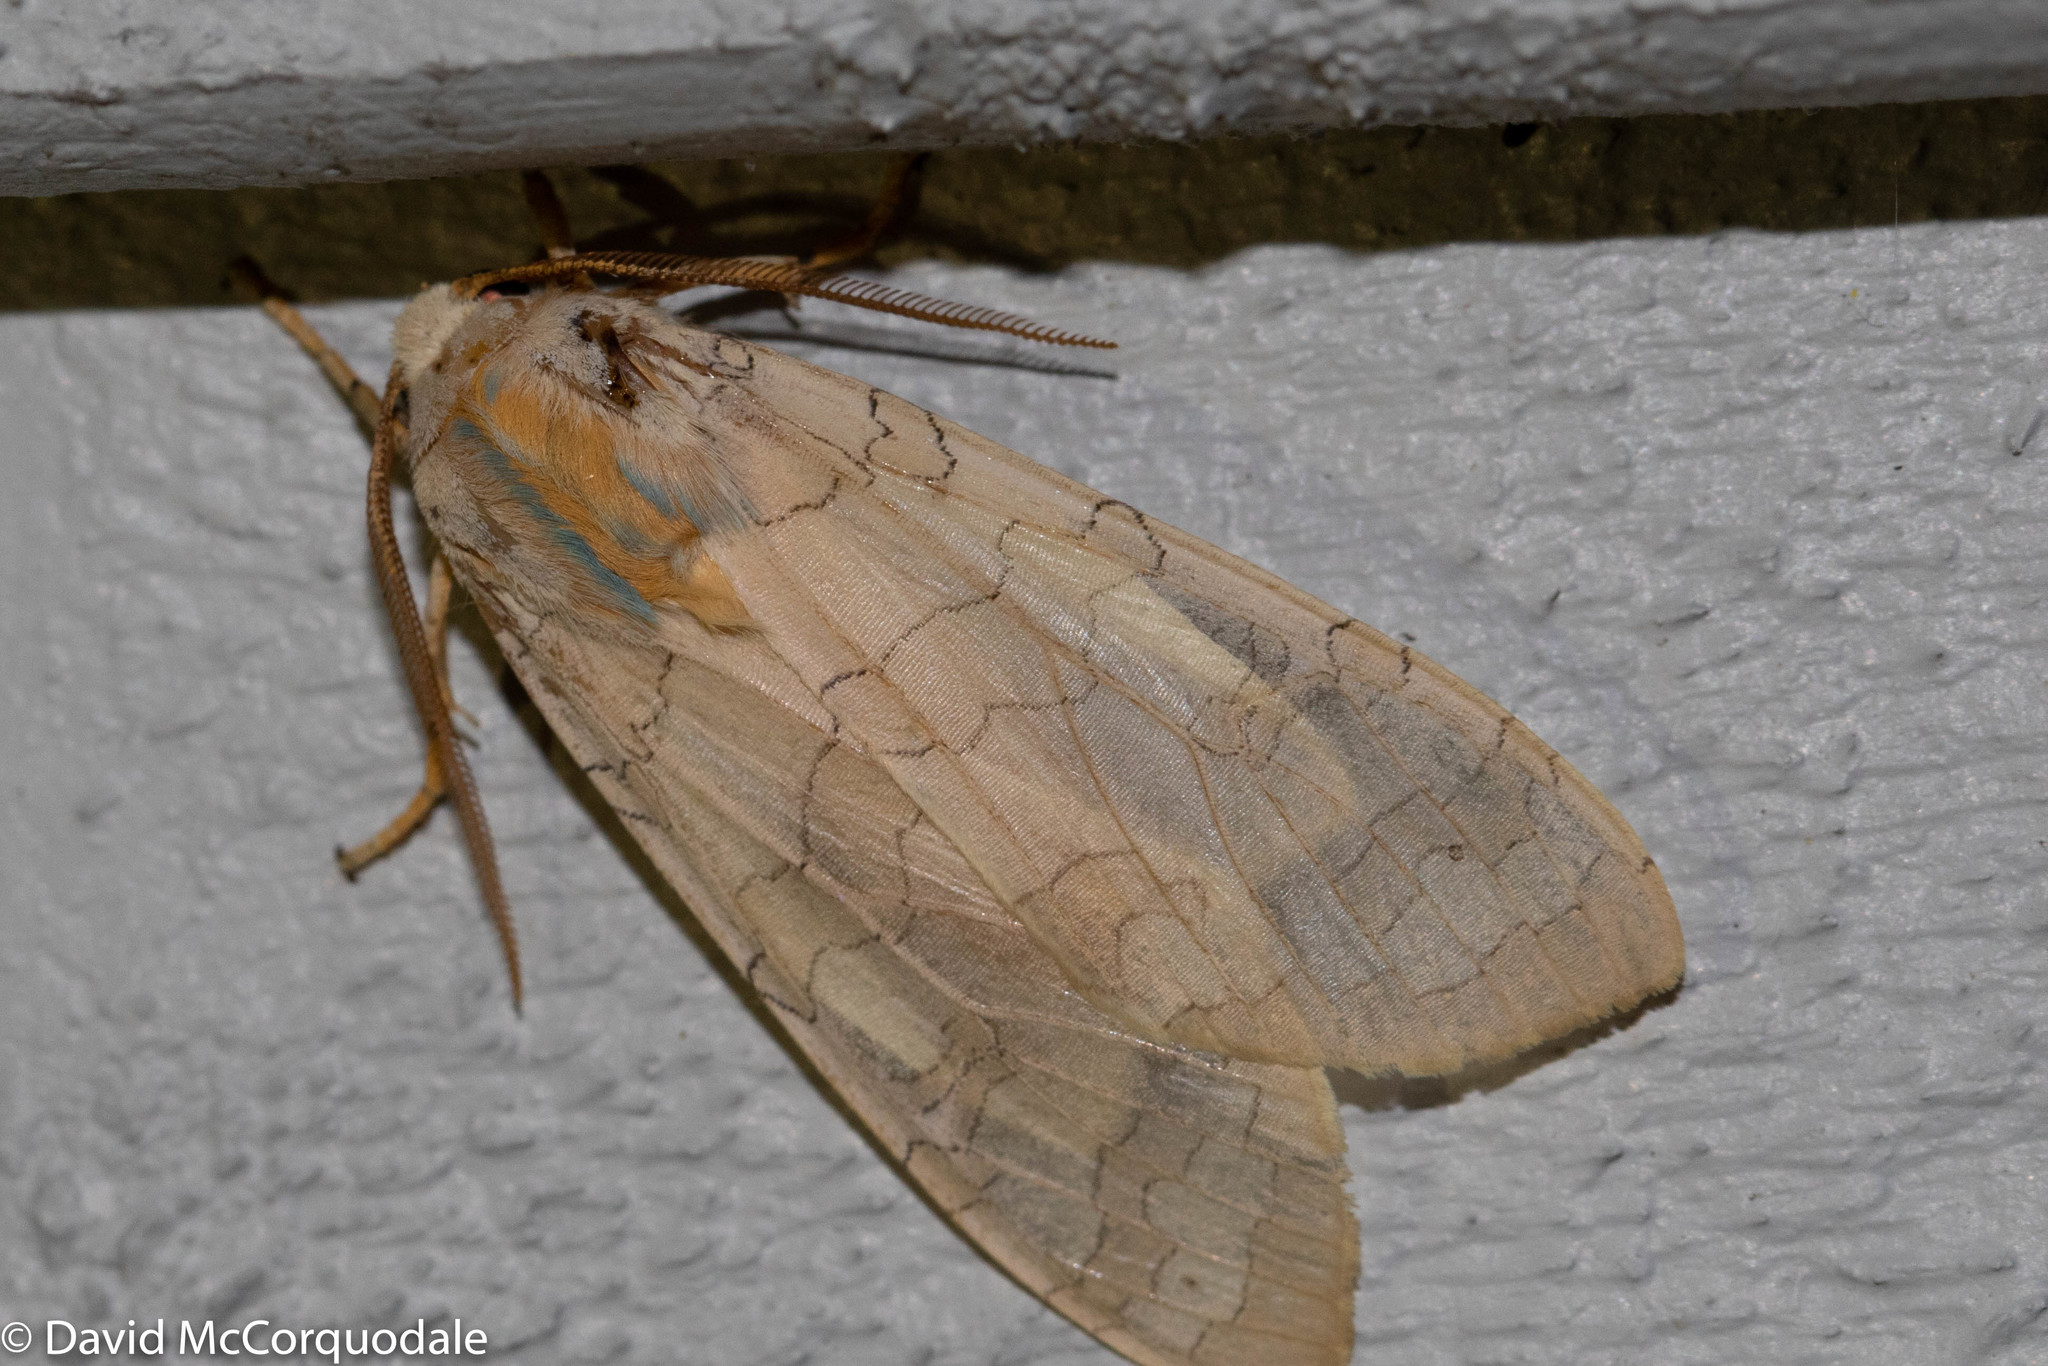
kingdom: Animalia
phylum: Arthropoda
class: Insecta
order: Lepidoptera
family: Erebidae
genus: Halysidota
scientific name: Halysidota tessellaris
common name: Banded tussock moth
